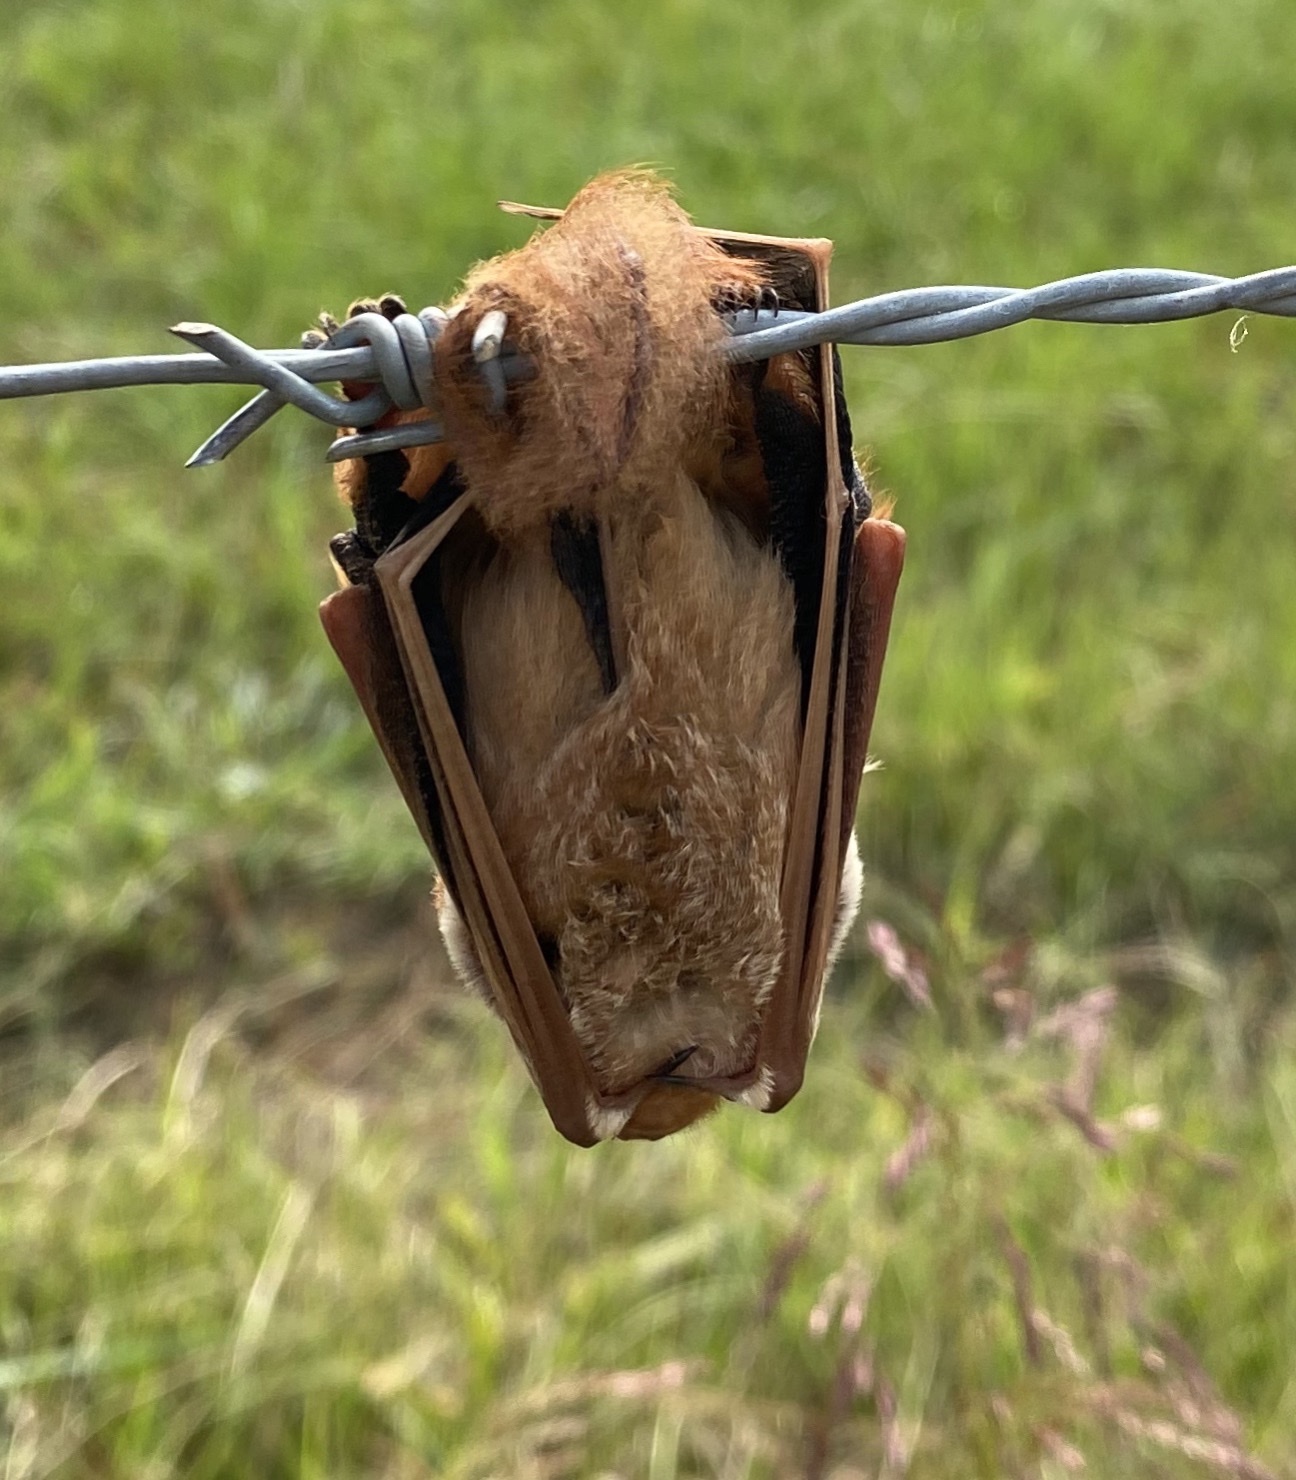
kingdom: Animalia
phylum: Chordata
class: Mammalia
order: Chiroptera
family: Vespertilionidae
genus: Lasiurus
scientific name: Lasiurus borealis
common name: Eastern red bat
